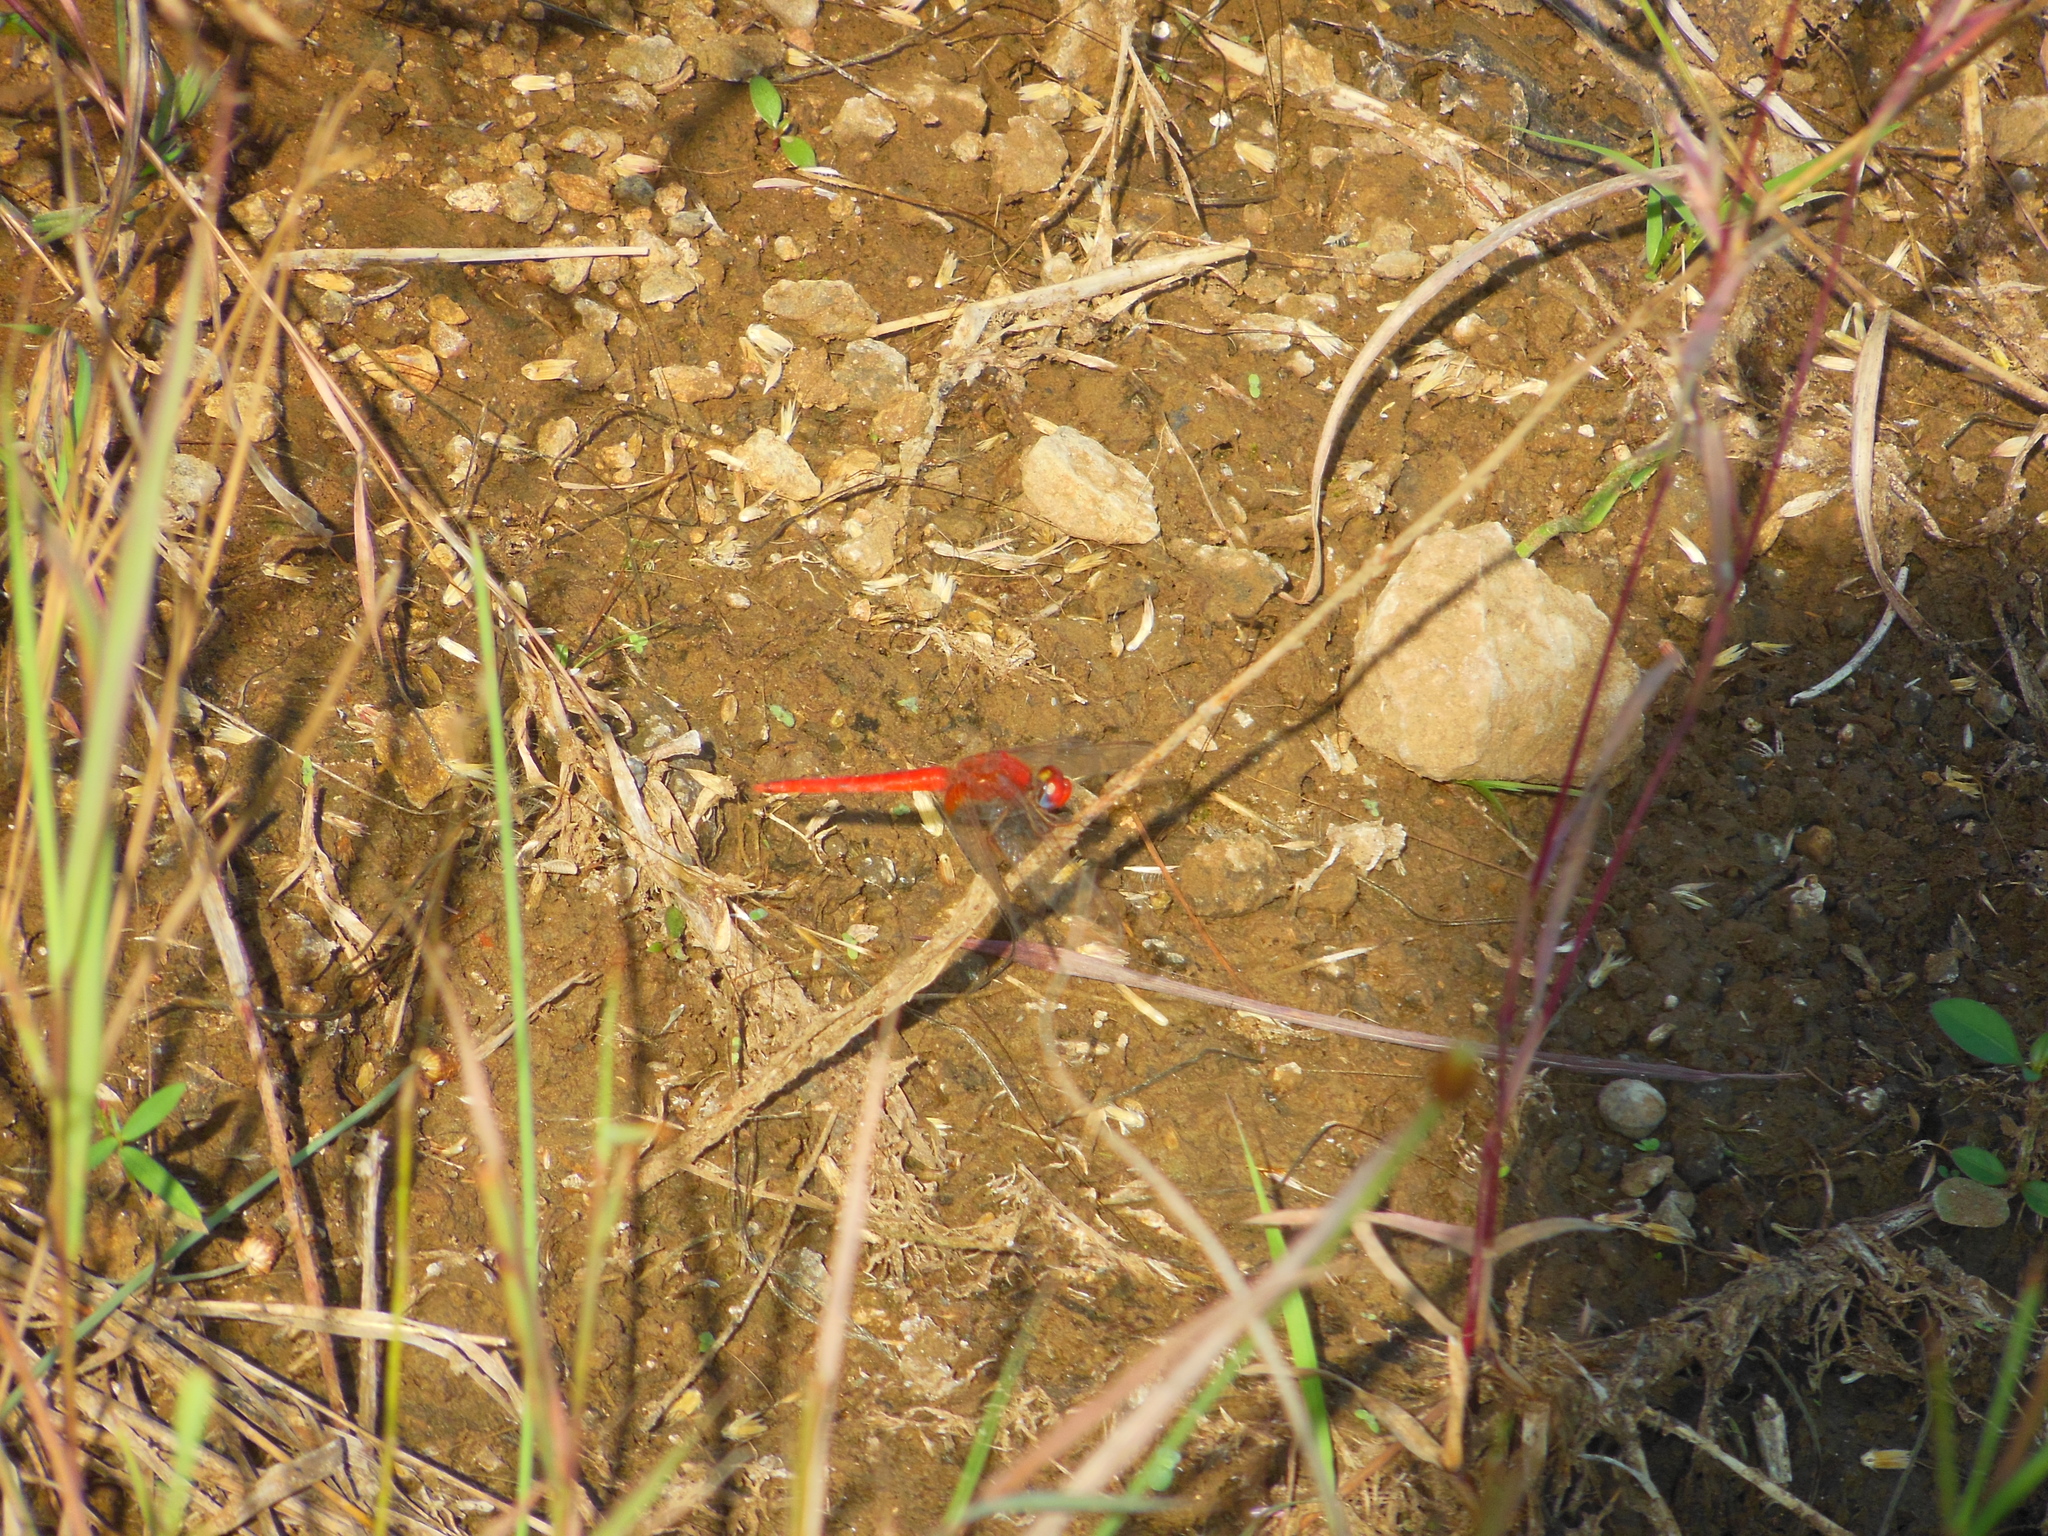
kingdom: Animalia
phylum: Arthropoda
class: Insecta
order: Odonata
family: Libellulidae
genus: Crocothemis
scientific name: Crocothemis servilia
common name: Scarlet skimmer
